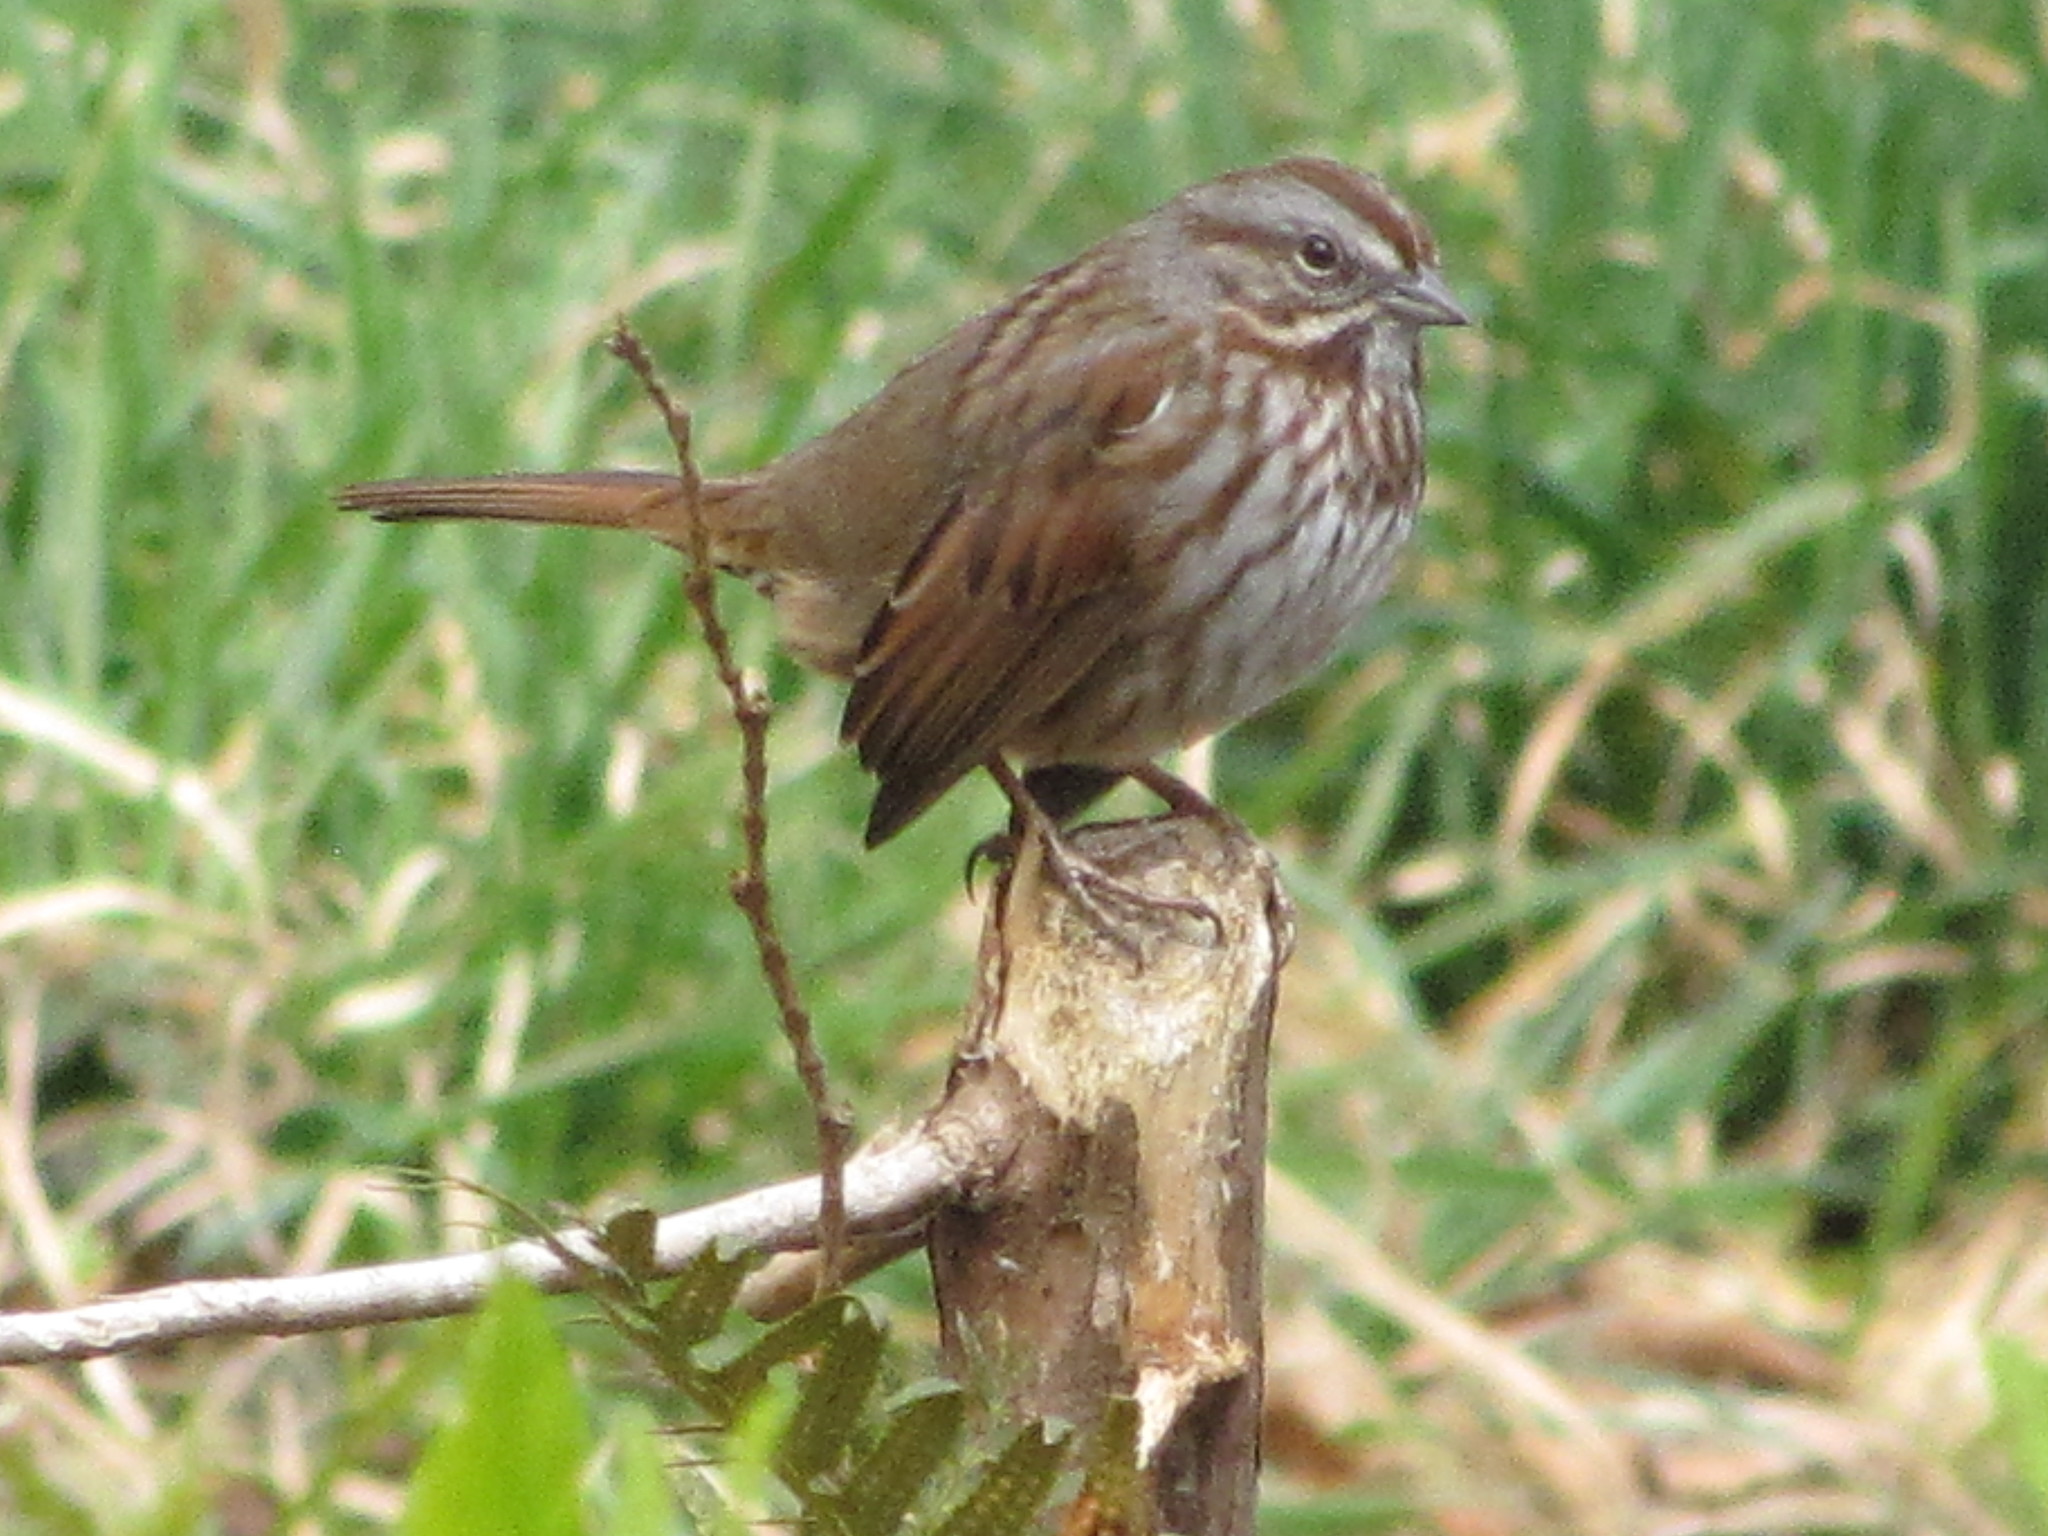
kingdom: Animalia
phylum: Chordata
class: Aves
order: Passeriformes
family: Passerellidae
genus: Melospiza
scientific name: Melospiza melodia
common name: Song sparrow
